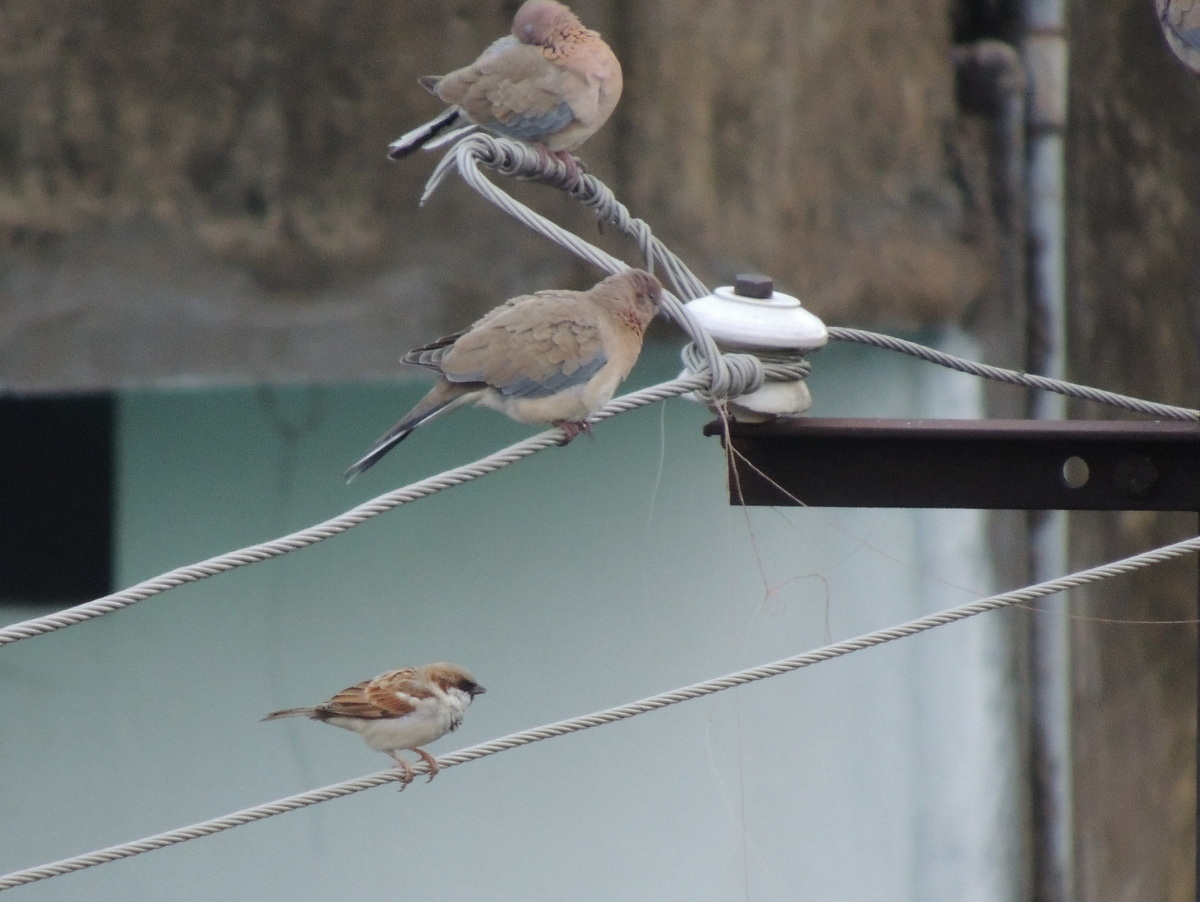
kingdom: Animalia
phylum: Chordata
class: Aves
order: Columbiformes
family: Columbidae
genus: Spilopelia
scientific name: Spilopelia senegalensis
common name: Laughing dove
